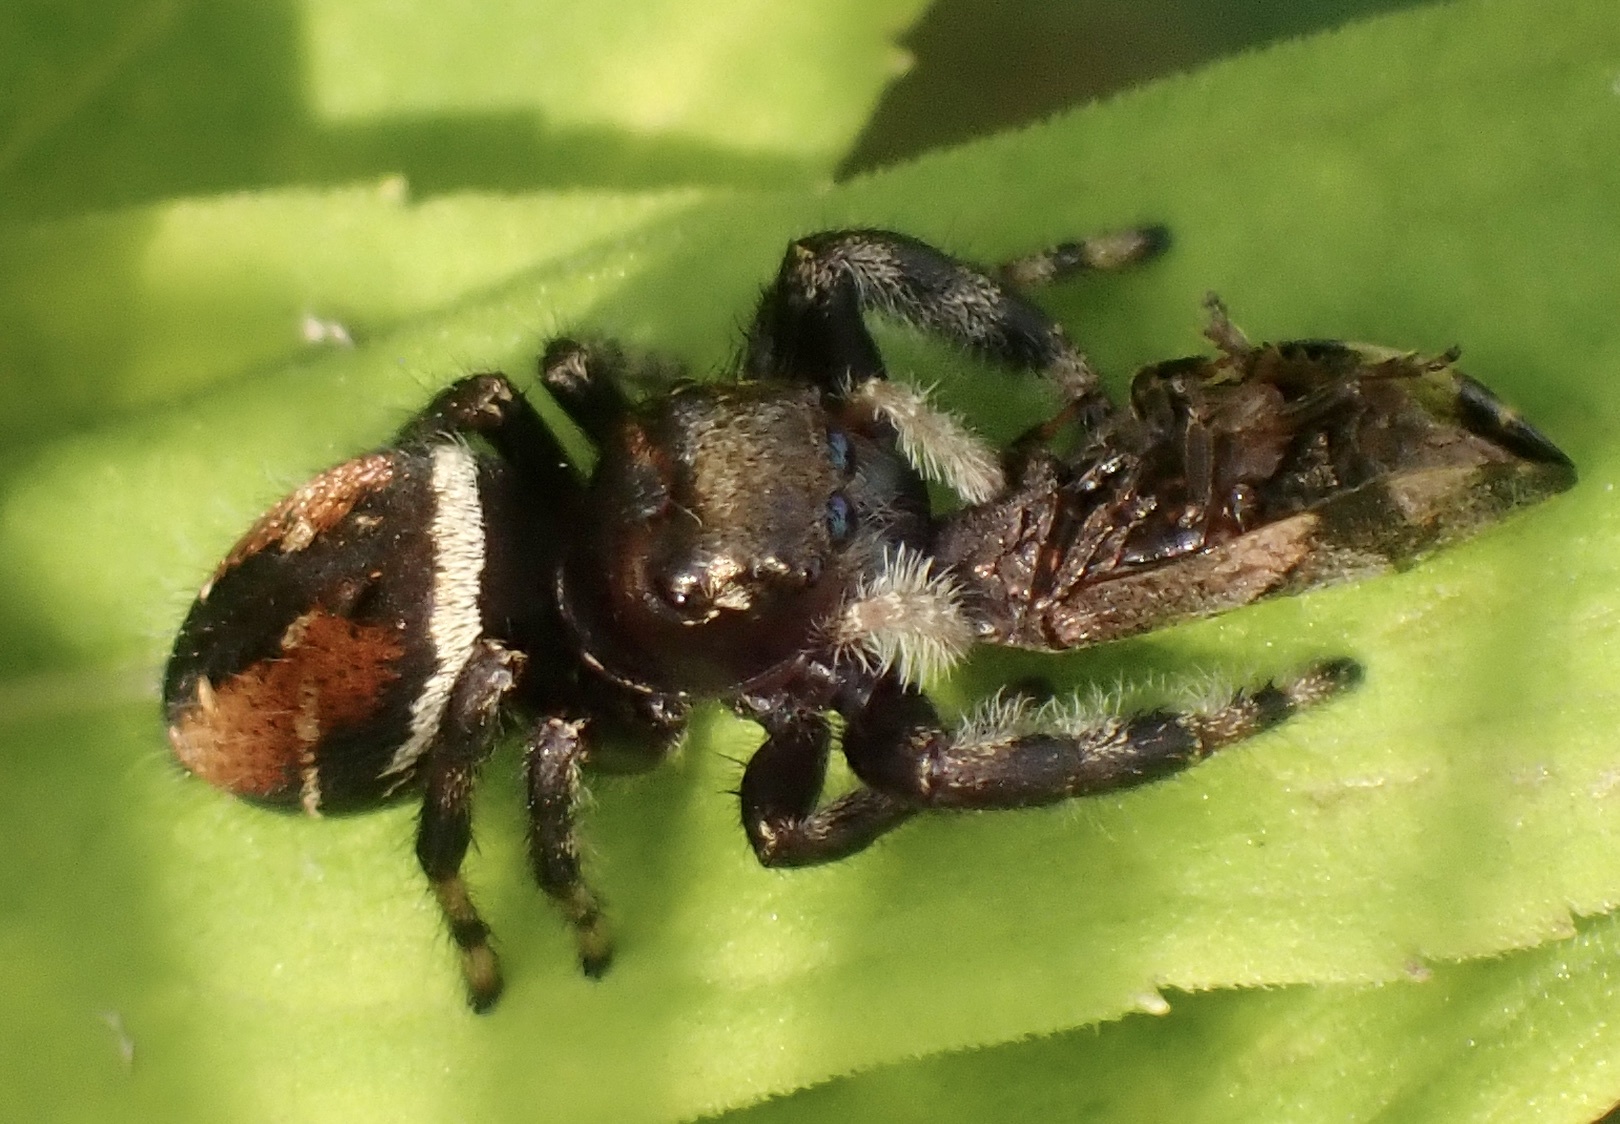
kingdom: Animalia
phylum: Arthropoda
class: Arachnida
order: Araneae
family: Salticidae
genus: Phidippus
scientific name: Phidippus clarus
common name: Brilliant jumping spider
